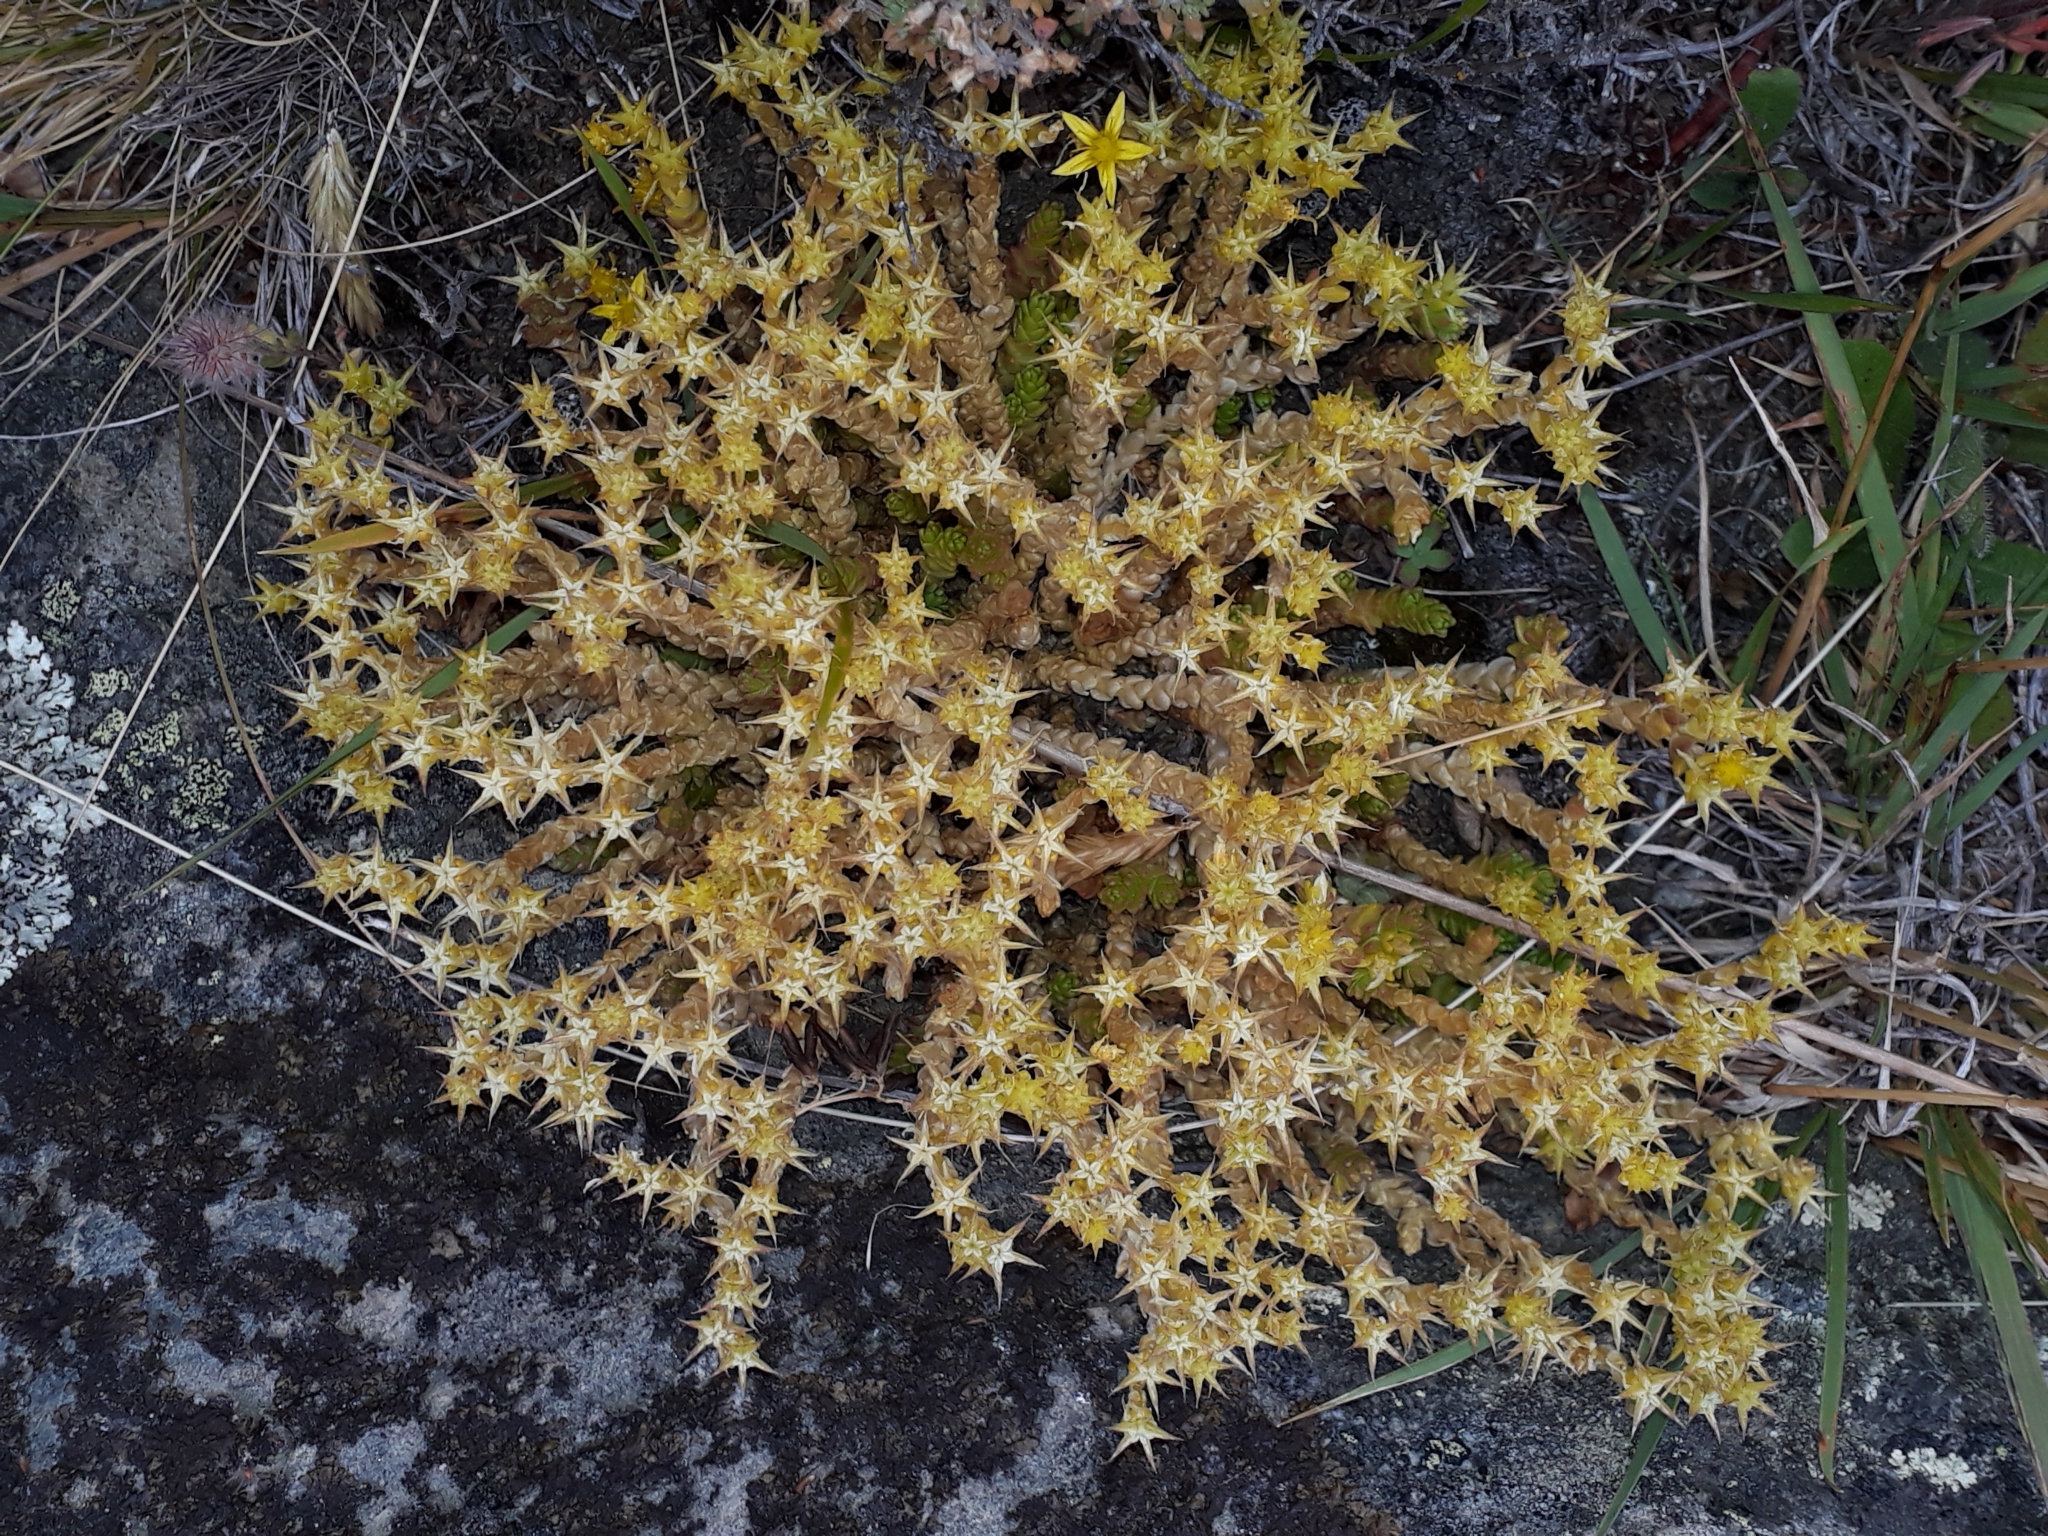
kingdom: Plantae
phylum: Tracheophyta
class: Magnoliopsida
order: Saxifragales
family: Crassulaceae
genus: Sedum
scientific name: Sedum acre
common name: Biting stonecrop
